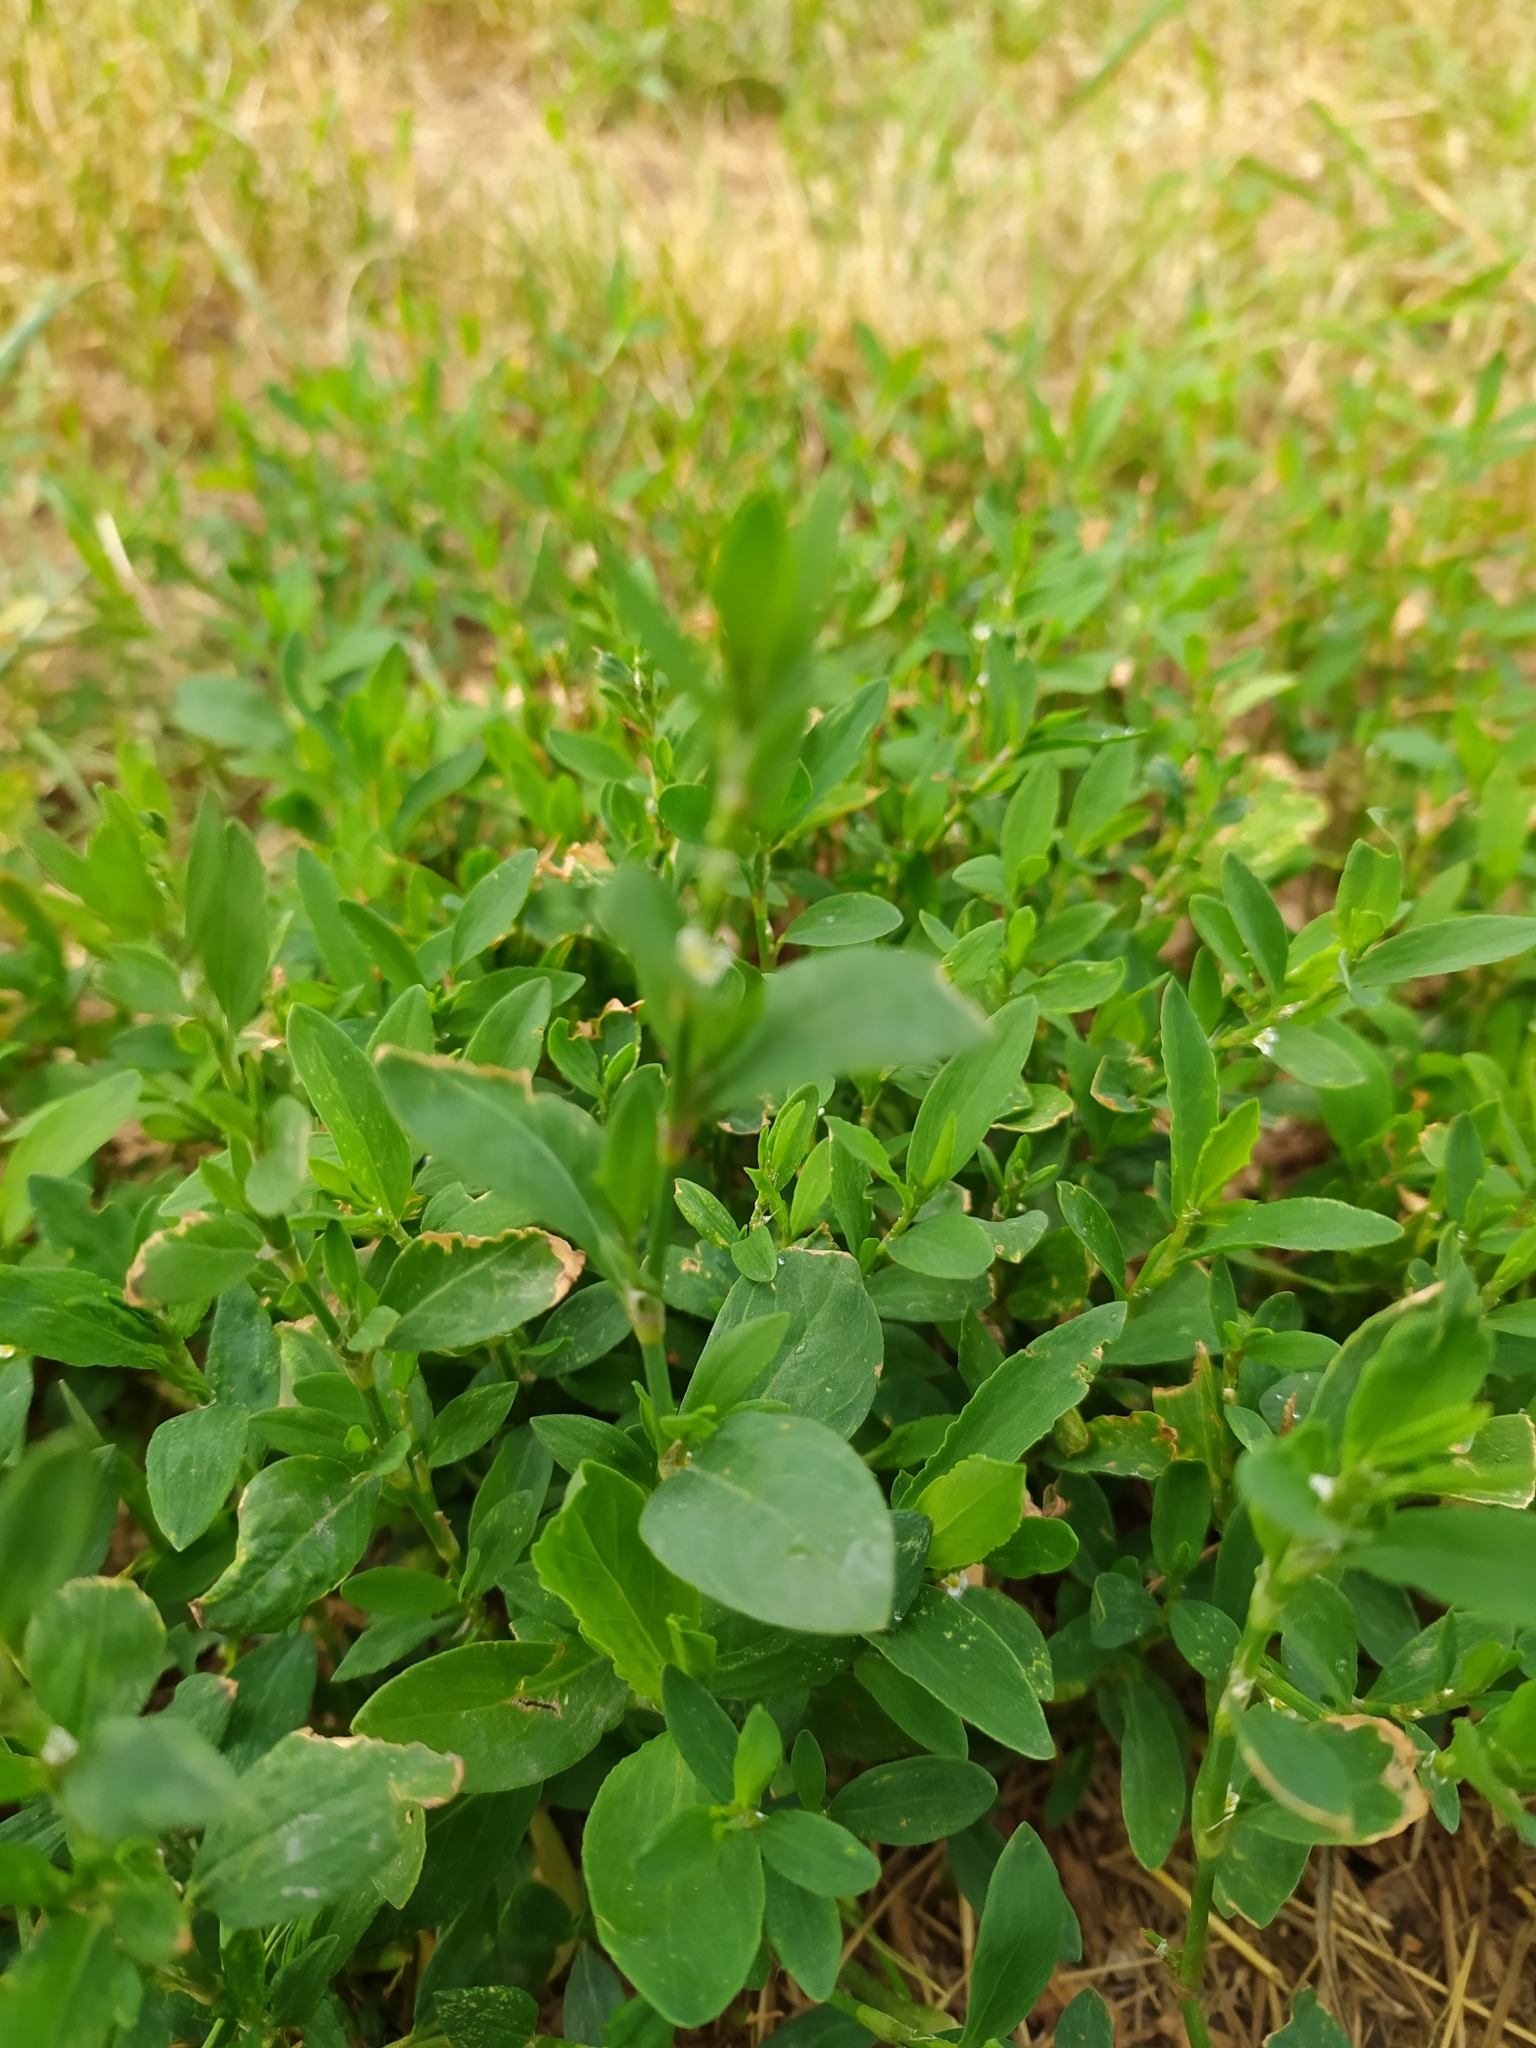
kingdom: Plantae
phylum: Tracheophyta
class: Magnoliopsida
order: Caryophyllales
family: Polygonaceae
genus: Polygonum
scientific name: Polygonum aviculare
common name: Prostrate knotweed
